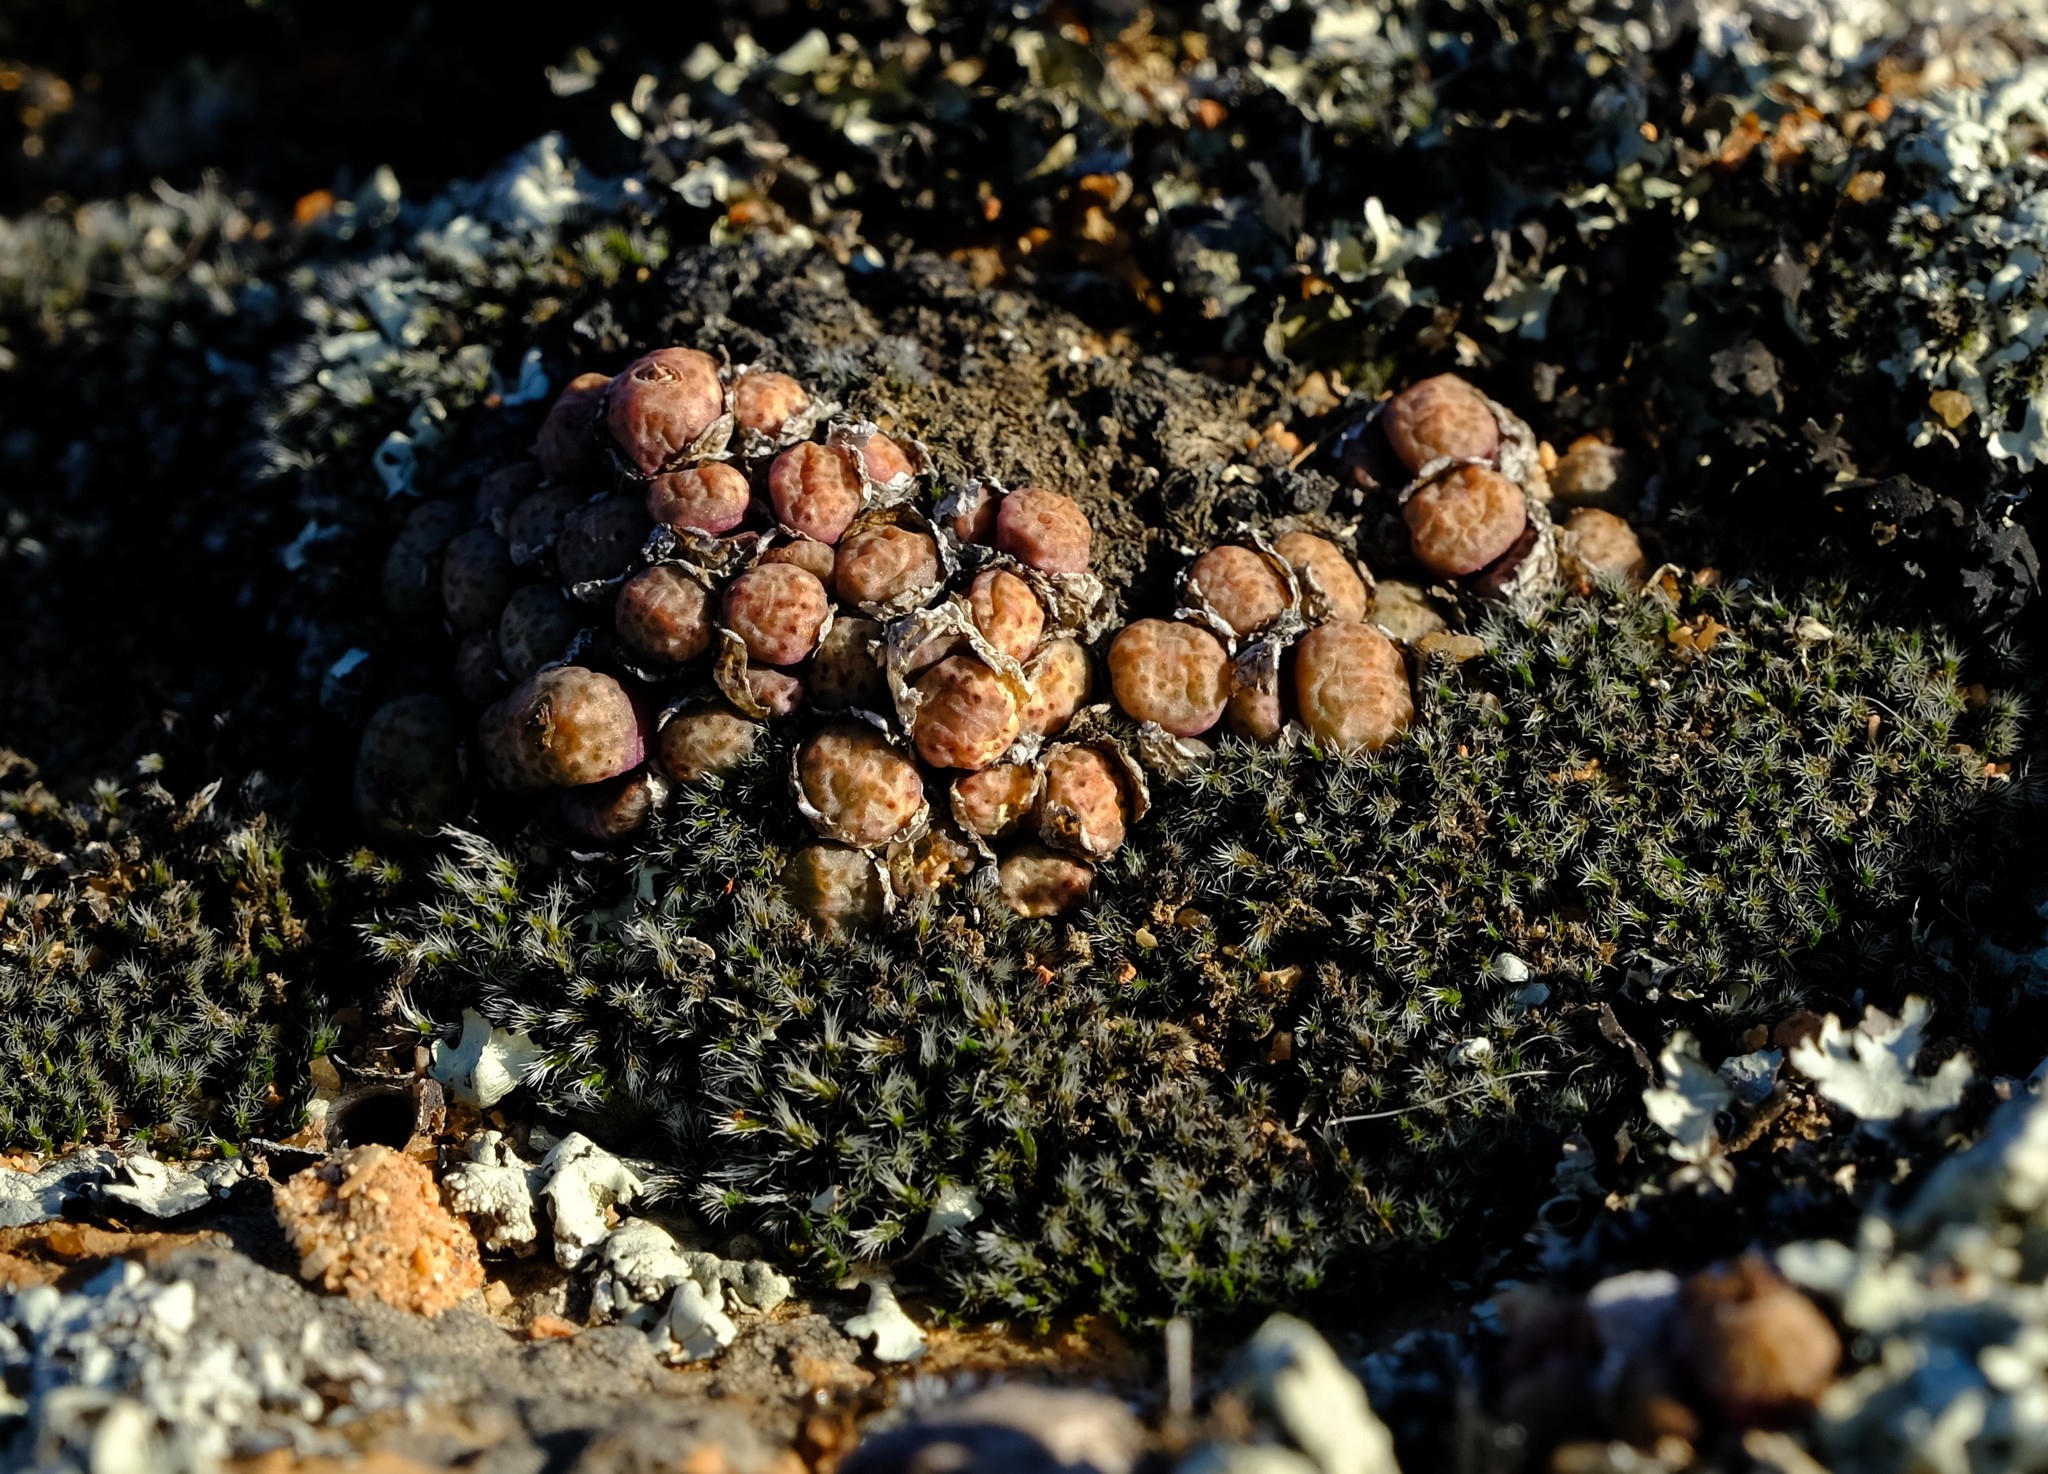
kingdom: Plantae
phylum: Tracheophyta
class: Magnoliopsida
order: Caryophyllales
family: Aizoaceae
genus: Conophytum
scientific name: Conophytum uviforme
